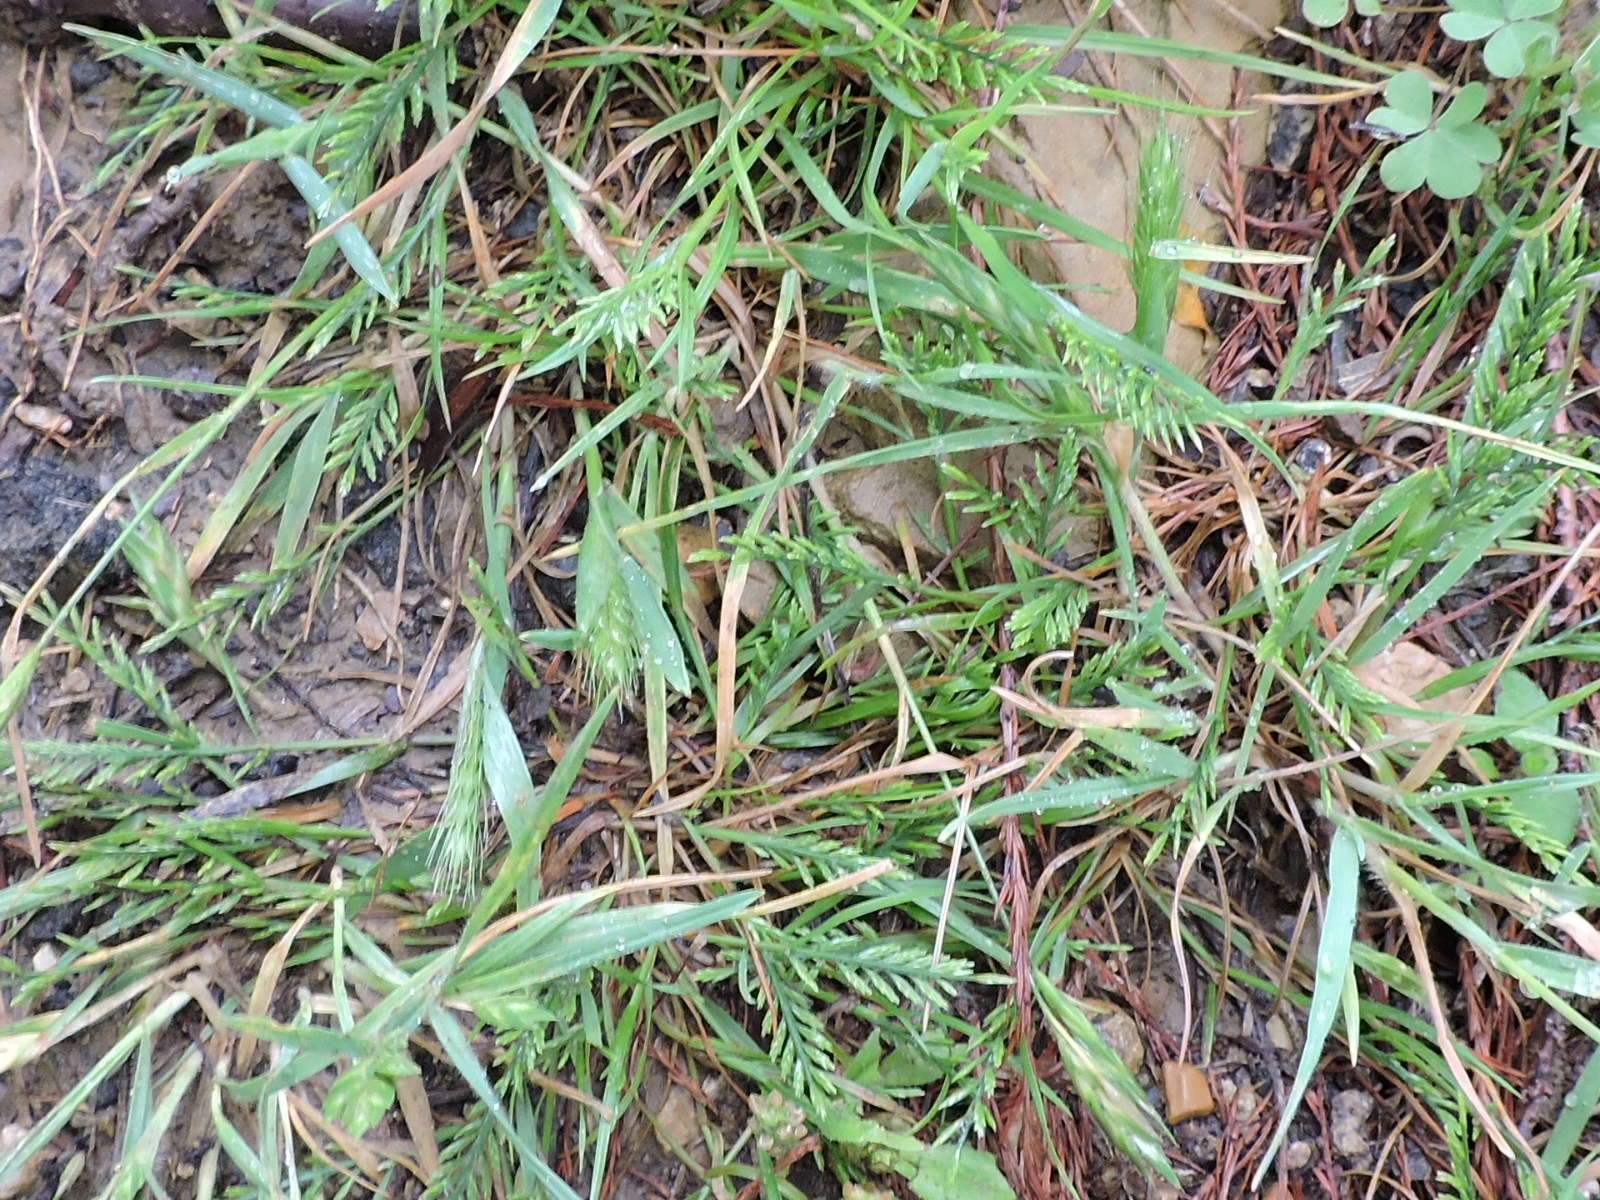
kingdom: Plantae
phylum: Tracheophyta
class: Liliopsida
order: Poales
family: Poaceae
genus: Catapodium
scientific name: Catapodium rigidum
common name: Fern-grass
